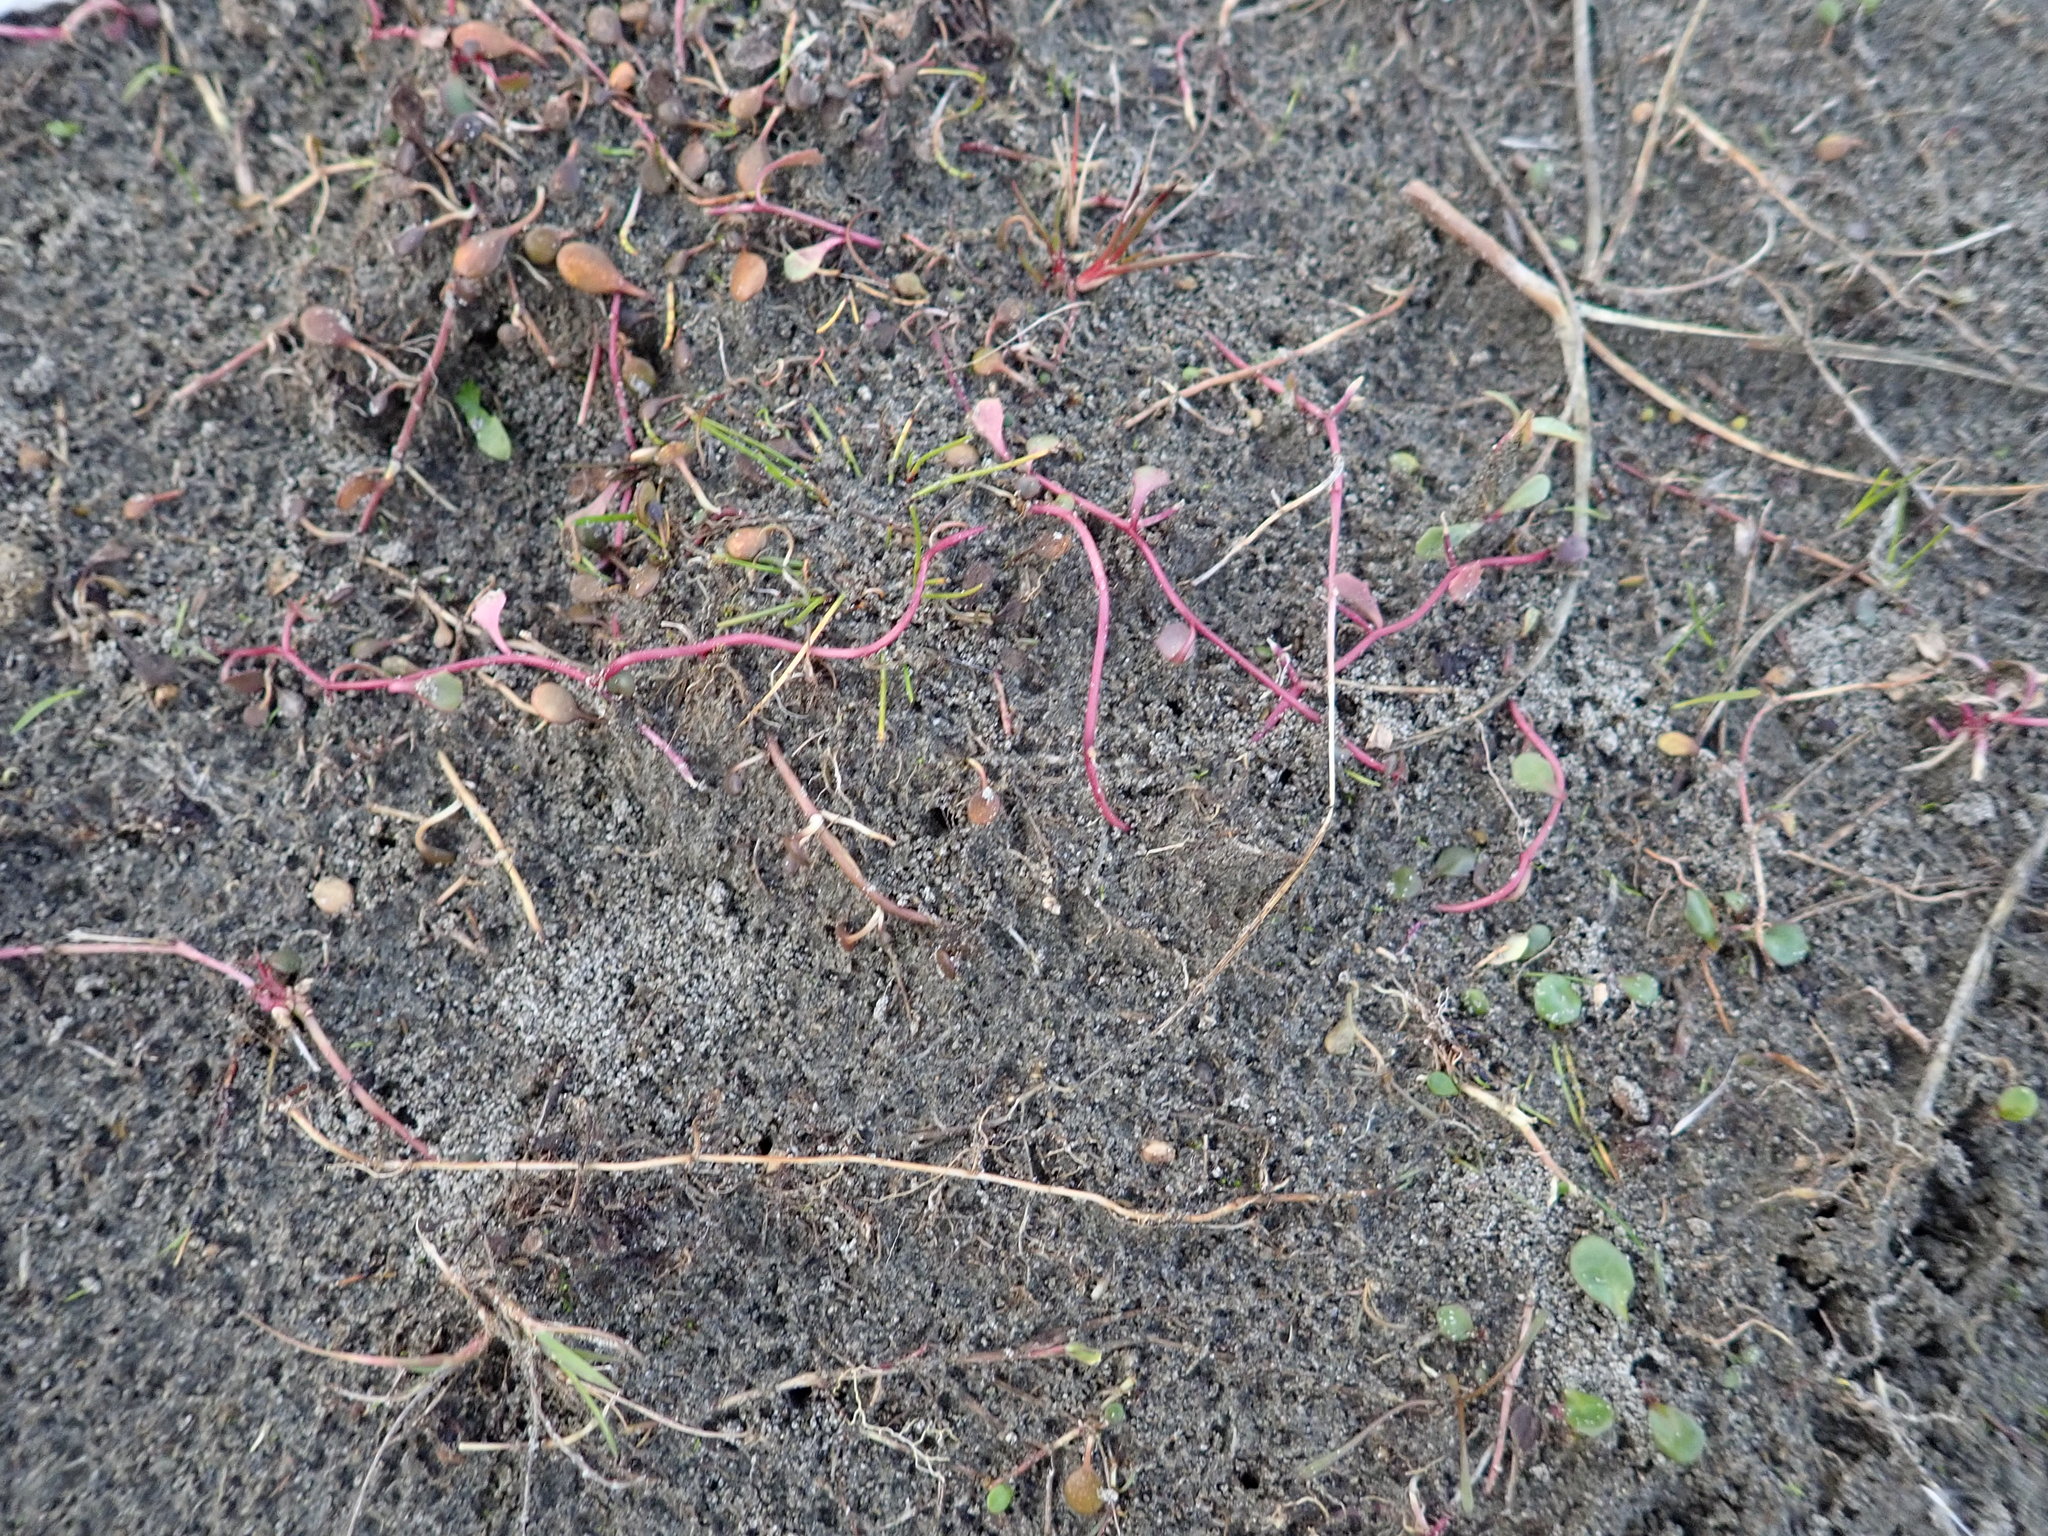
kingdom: Plantae
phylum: Tracheophyta
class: Magnoliopsida
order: Asterales
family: Campanulaceae
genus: Lobelia
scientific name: Lobelia anceps
